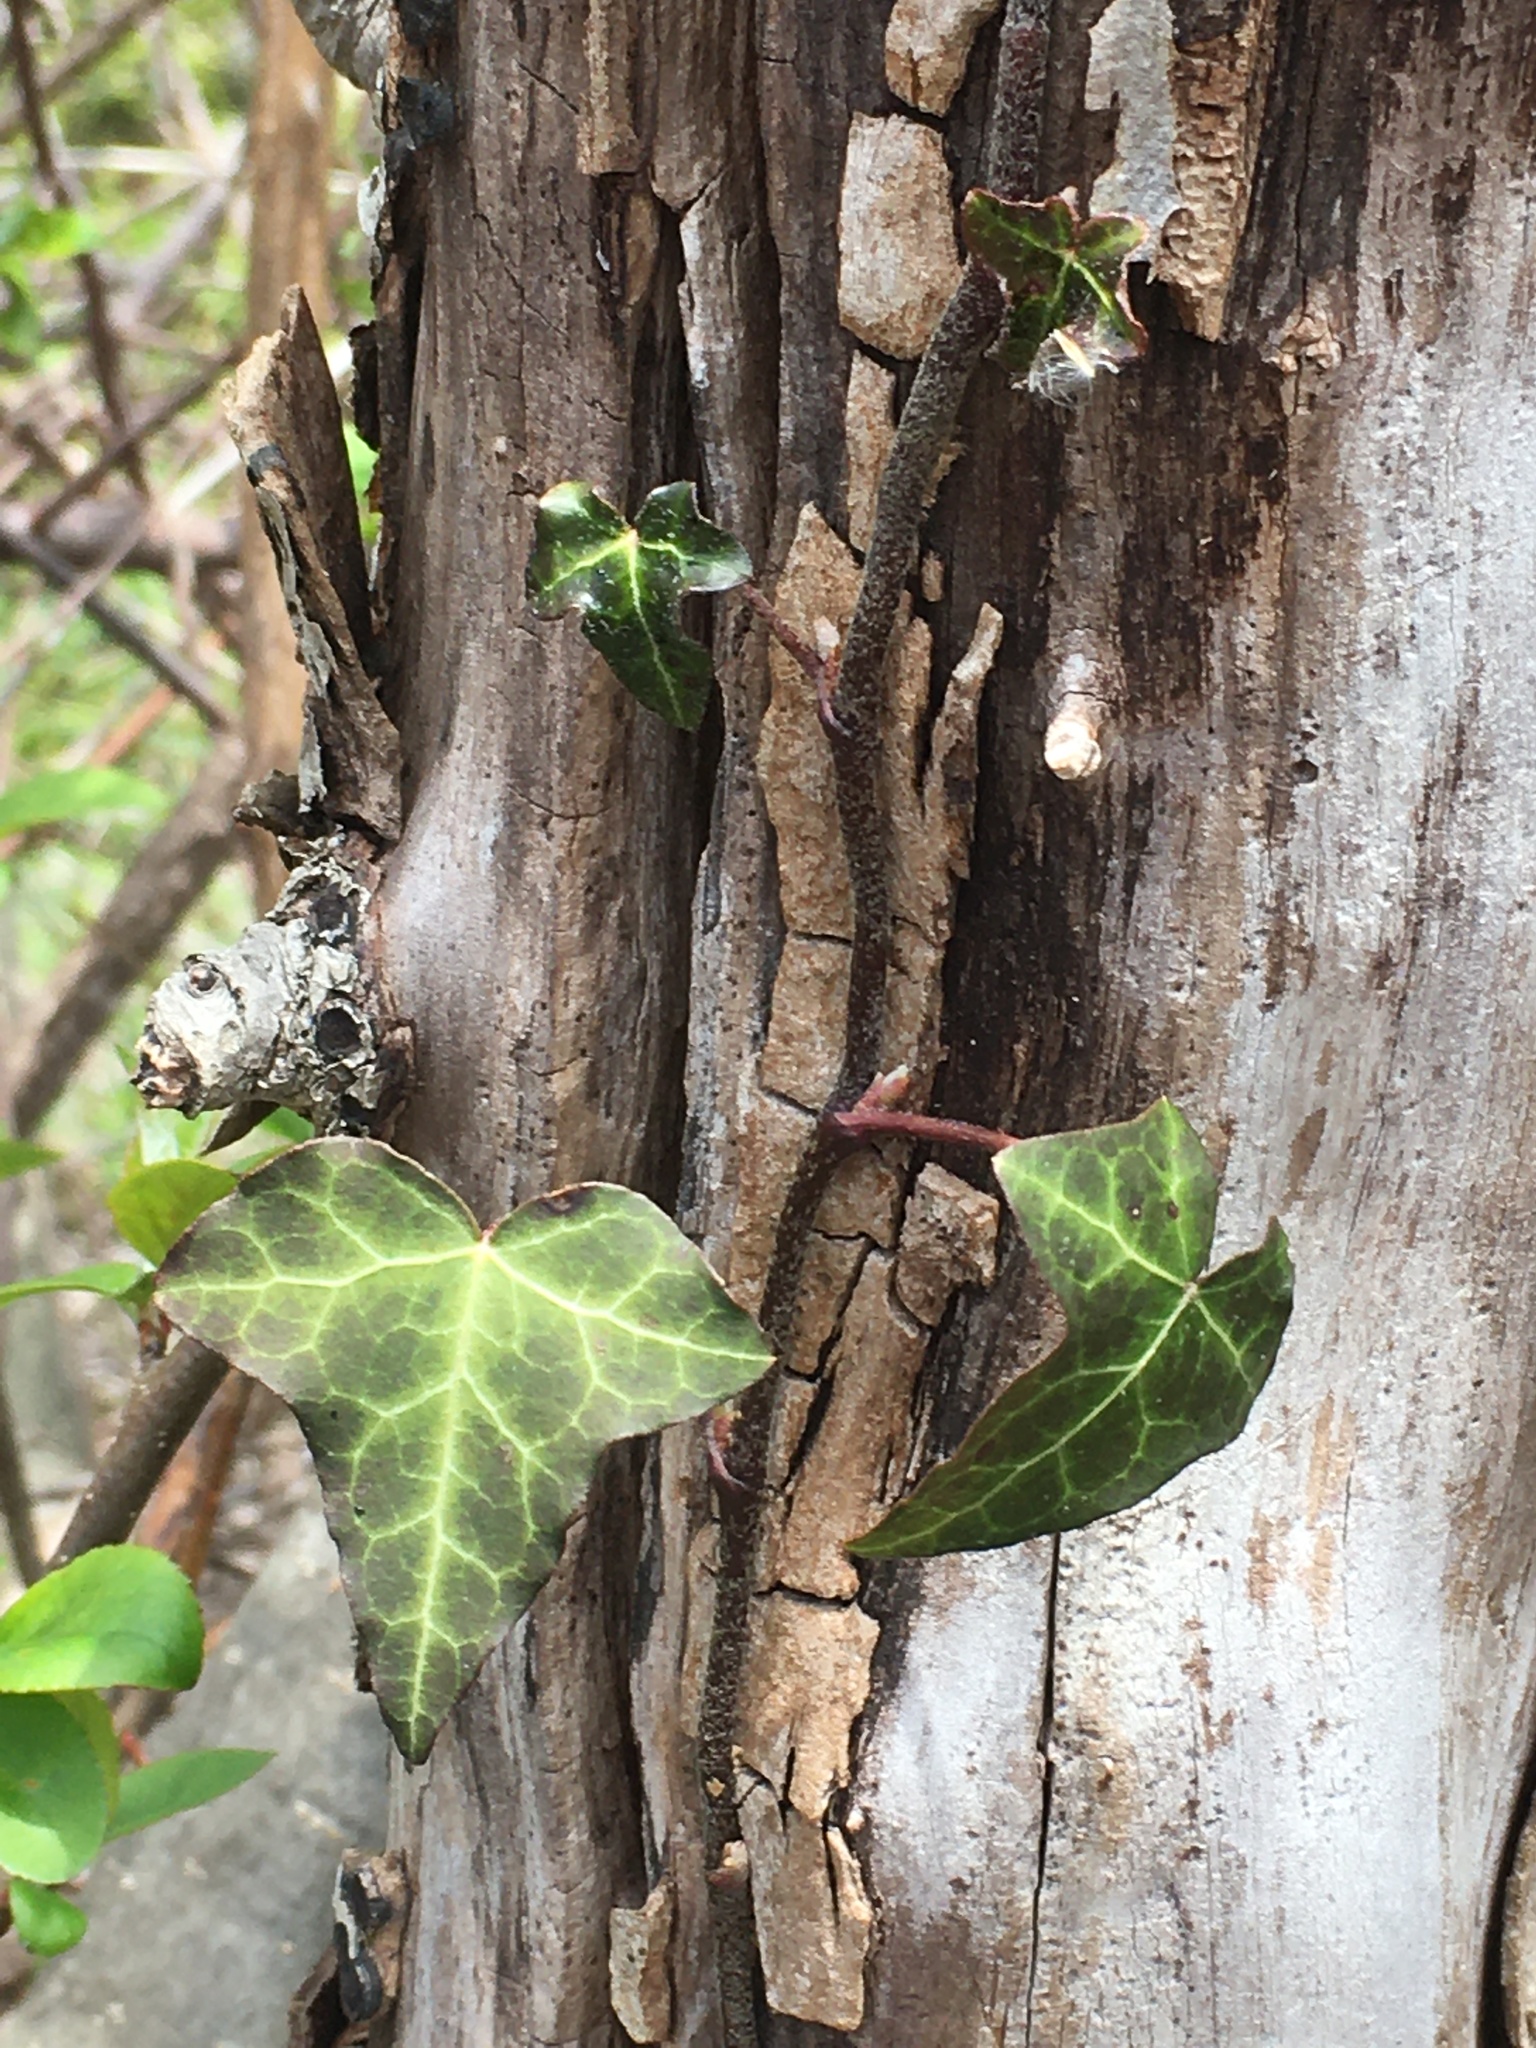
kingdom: Plantae
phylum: Tracheophyta
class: Magnoliopsida
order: Apiales
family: Araliaceae
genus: Hedera
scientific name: Hedera helix
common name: Ivy
